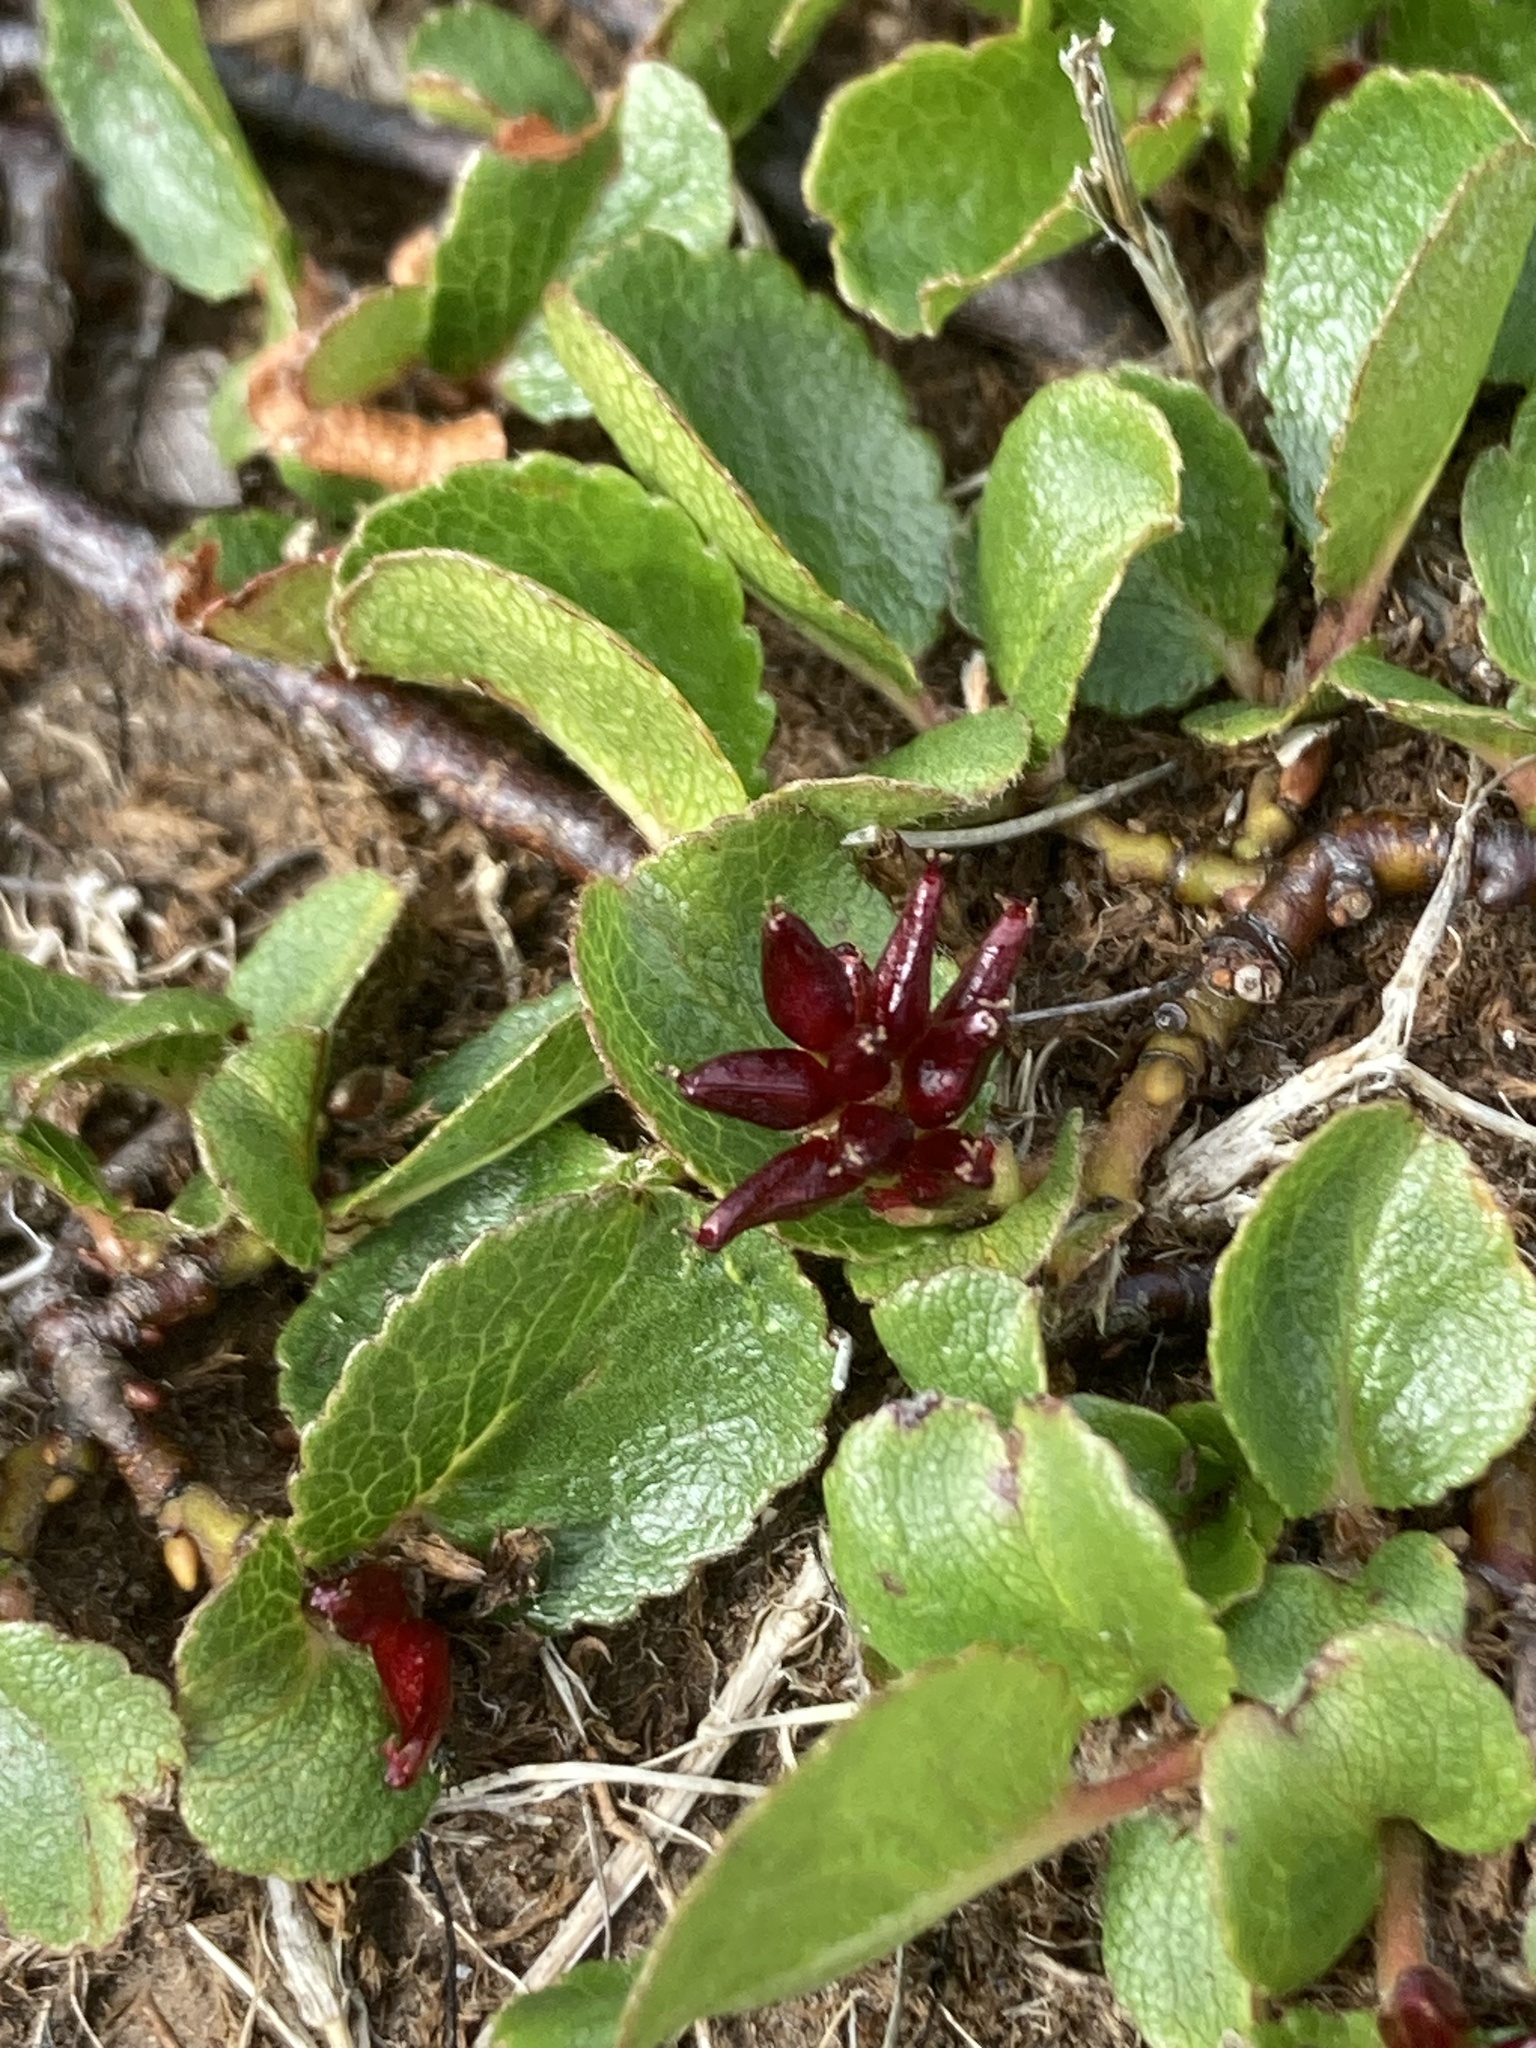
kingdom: Plantae
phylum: Tracheophyta
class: Magnoliopsida
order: Malpighiales
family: Salicaceae
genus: Salix
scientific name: Salix herbacea
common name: Dwarf willow
